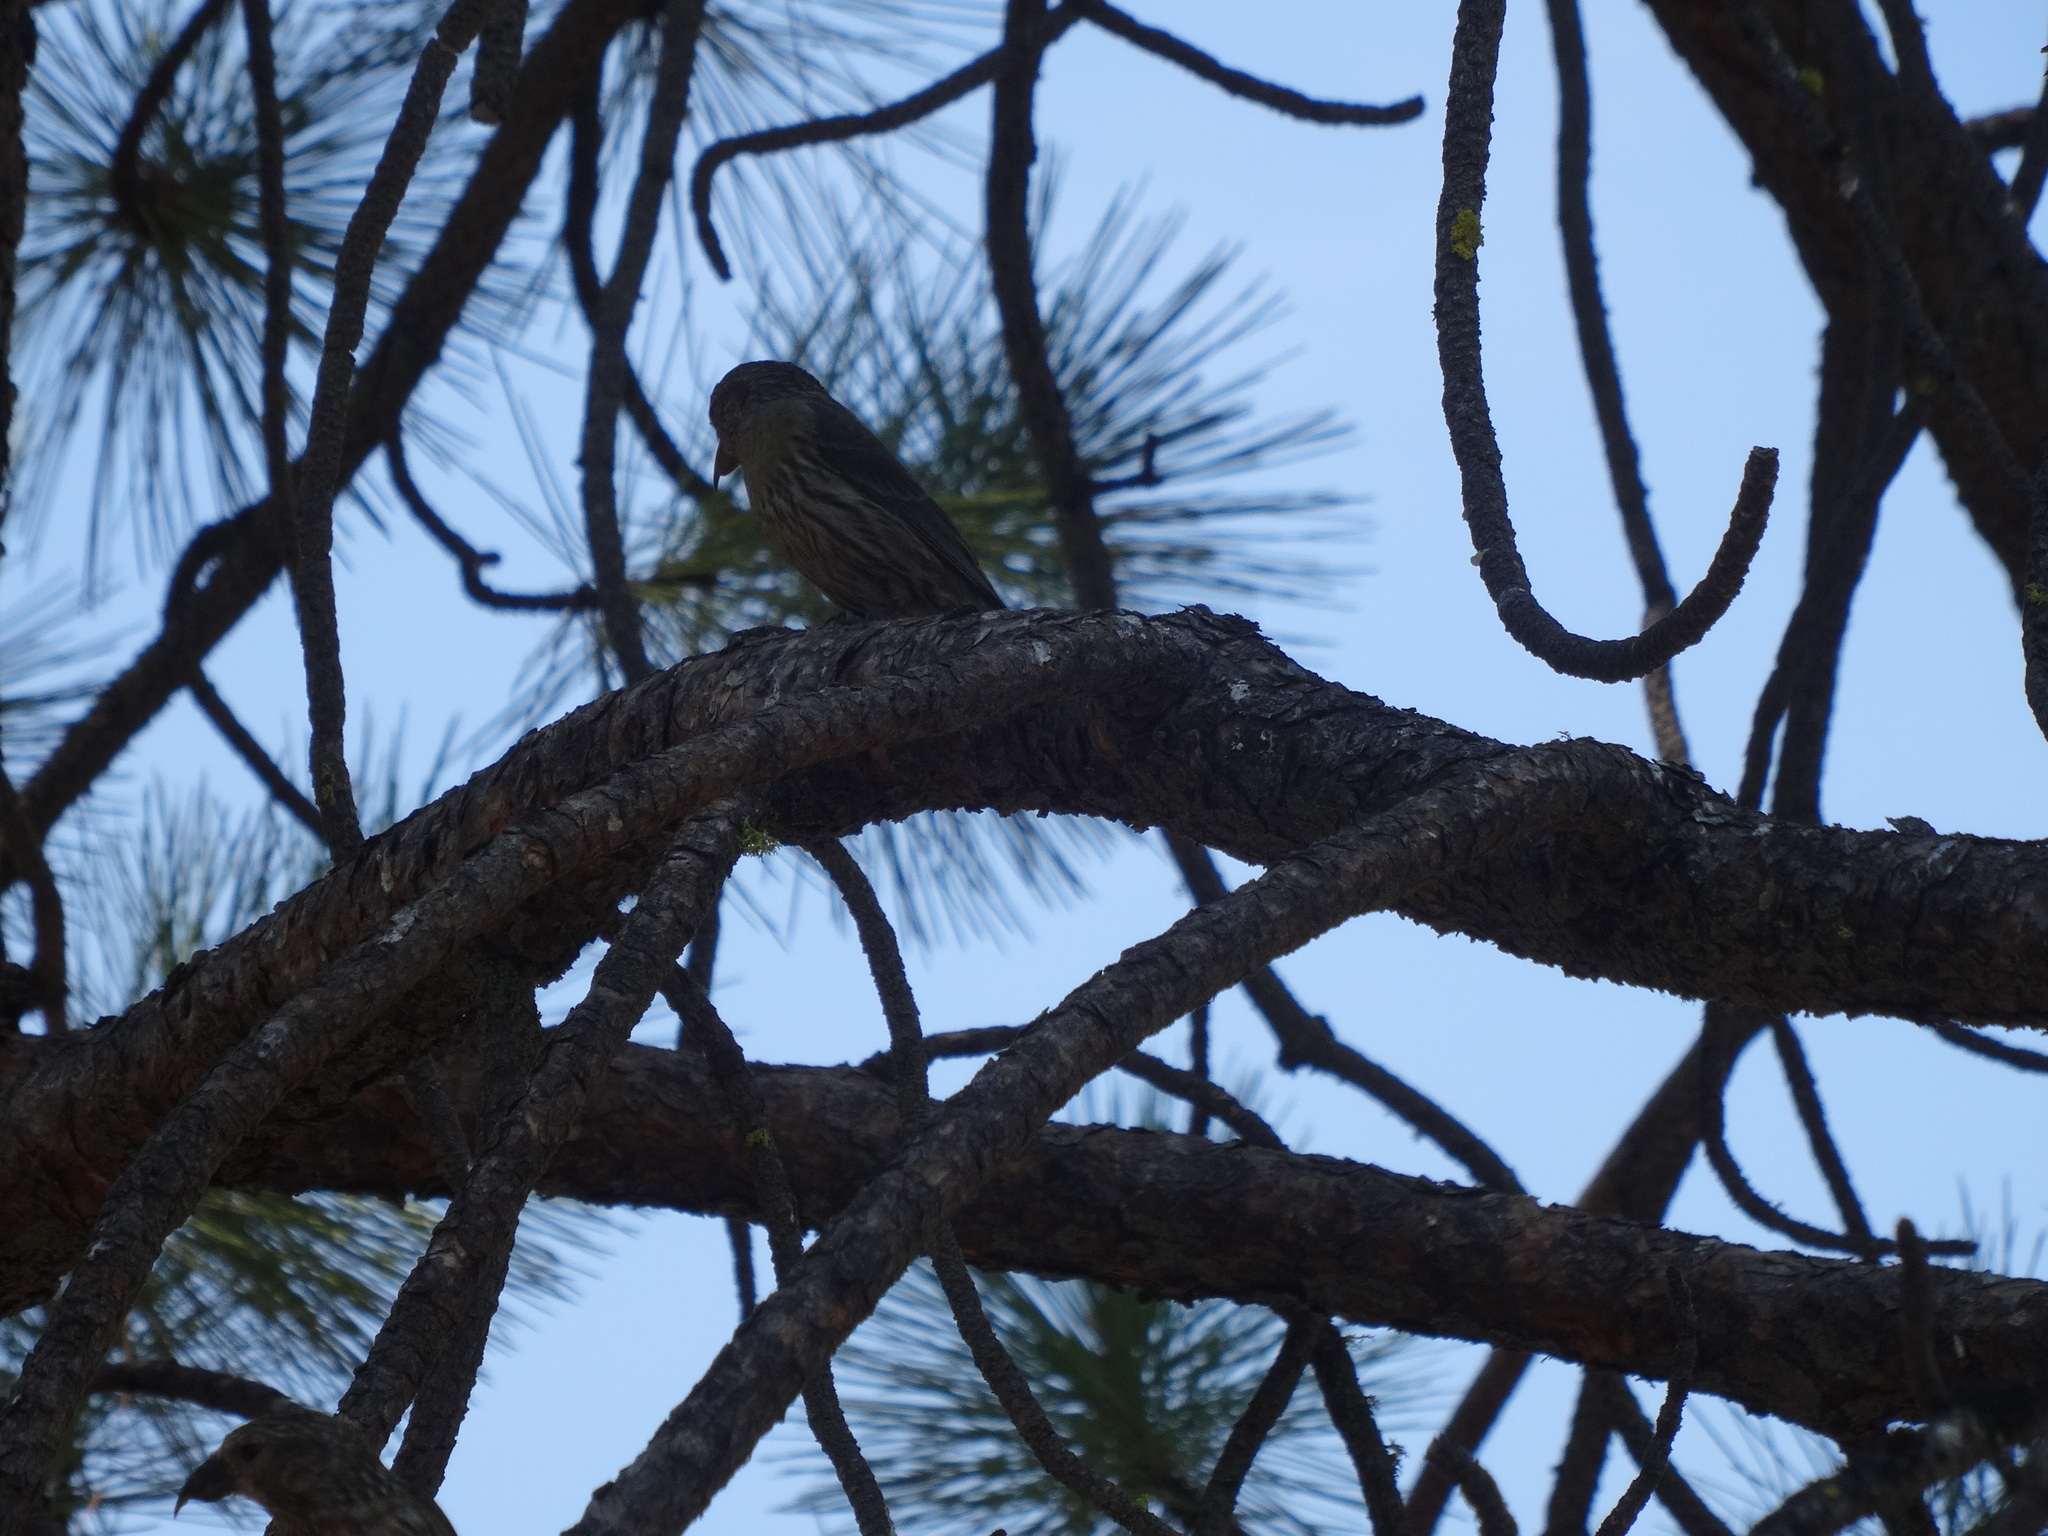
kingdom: Animalia
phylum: Chordata
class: Aves
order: Passeriformes
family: Fringillidae
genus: Loxia
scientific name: Loxia curvirostra
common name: Red crossbill
